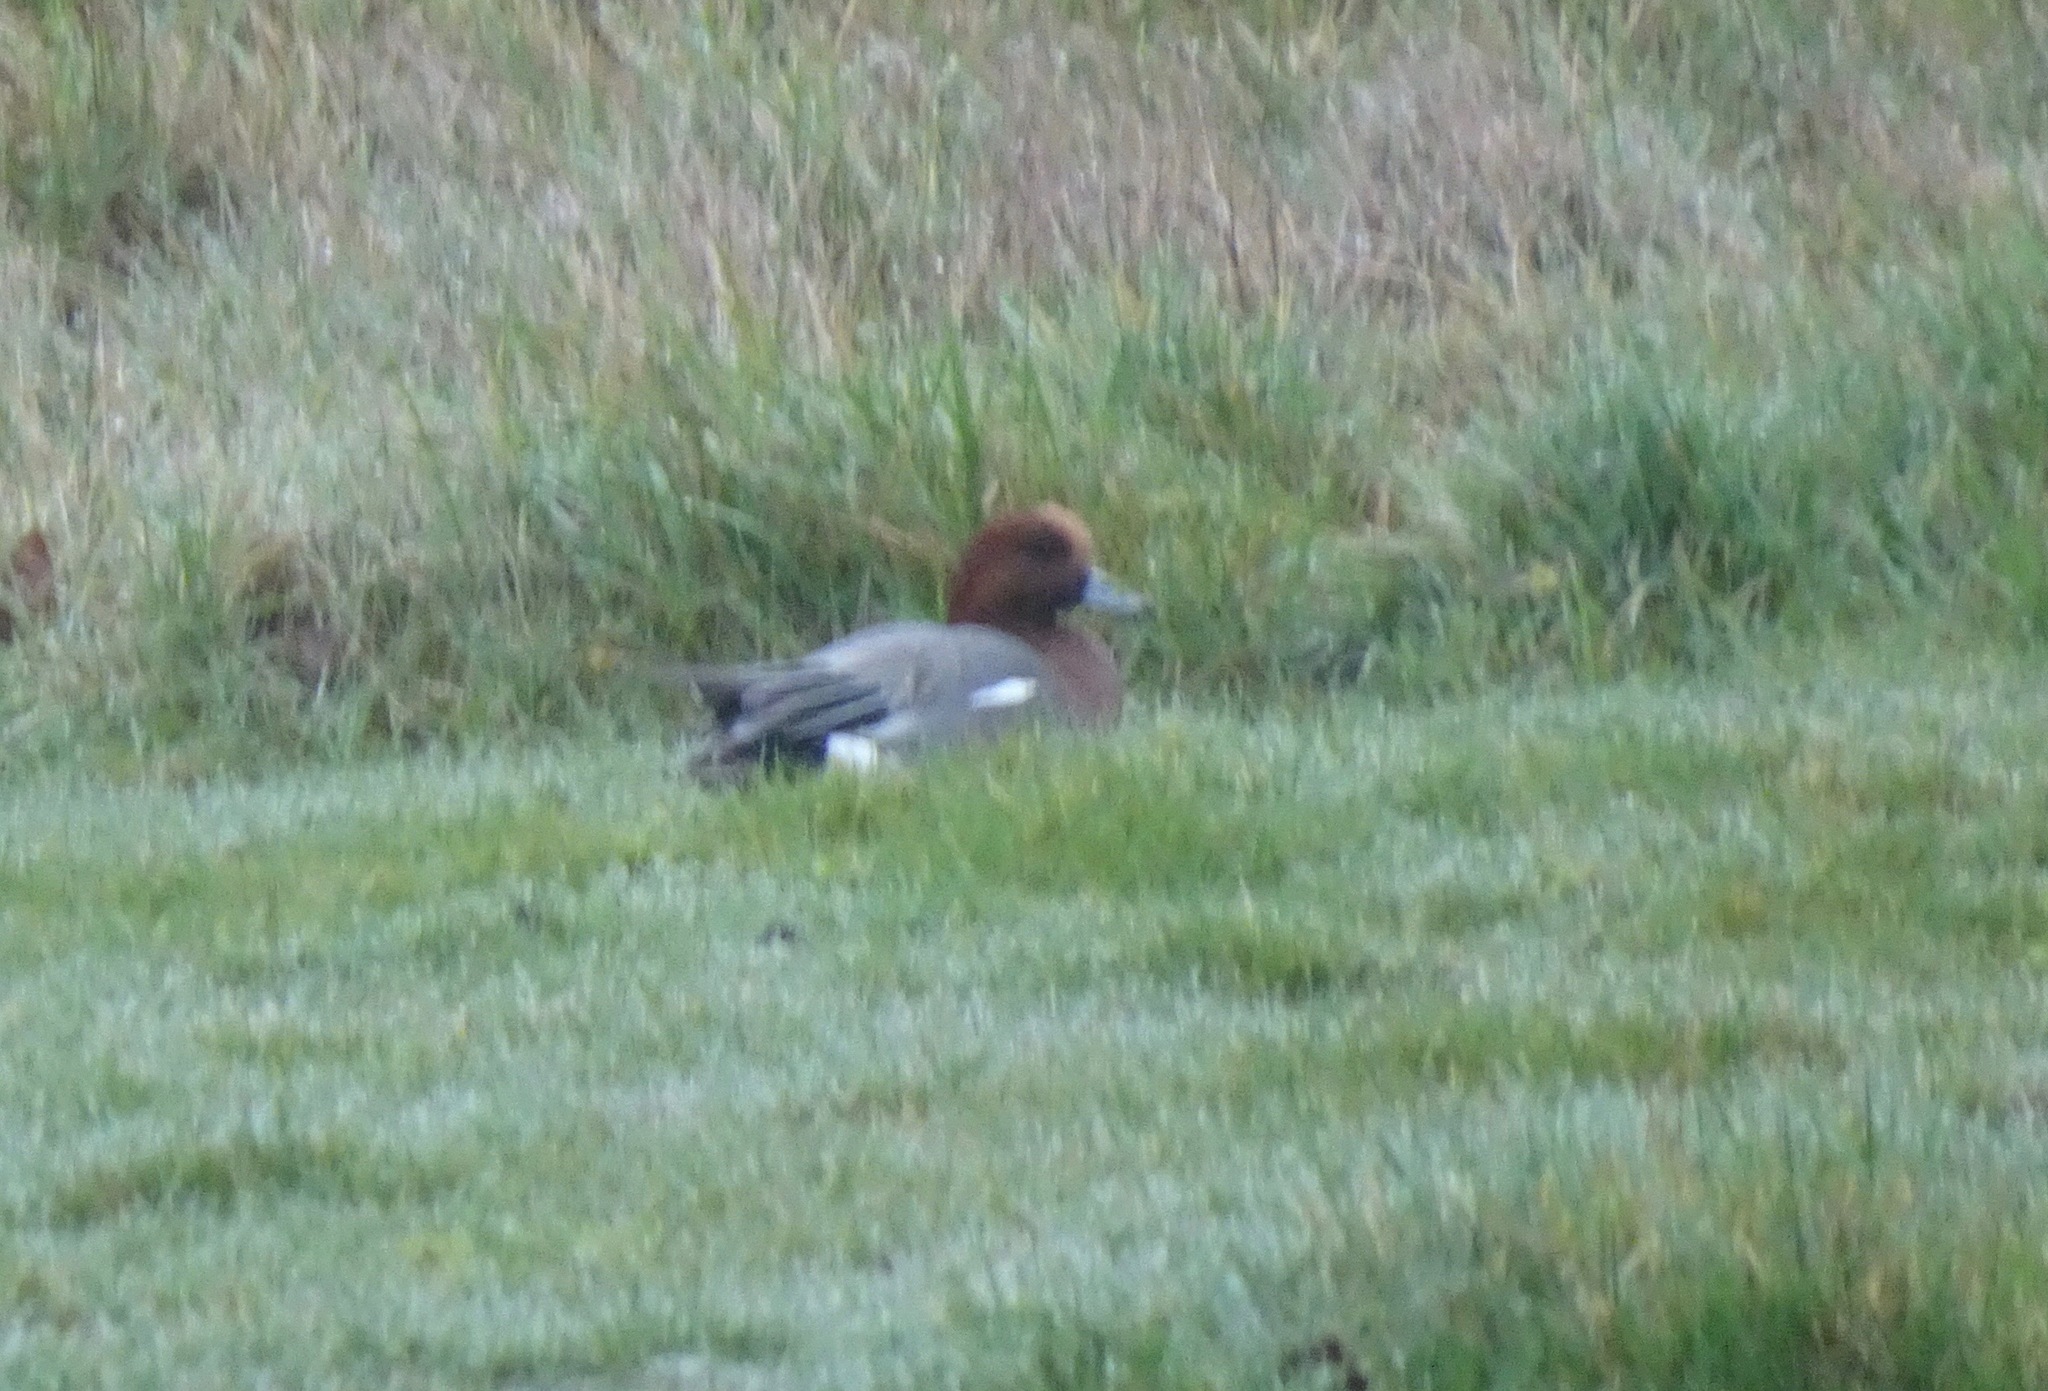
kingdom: Animalia
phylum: Chordata
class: Aves
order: Anseriformes
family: Anatidae
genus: Mareca
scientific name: Mareca penelope
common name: Eurasian wigeon
